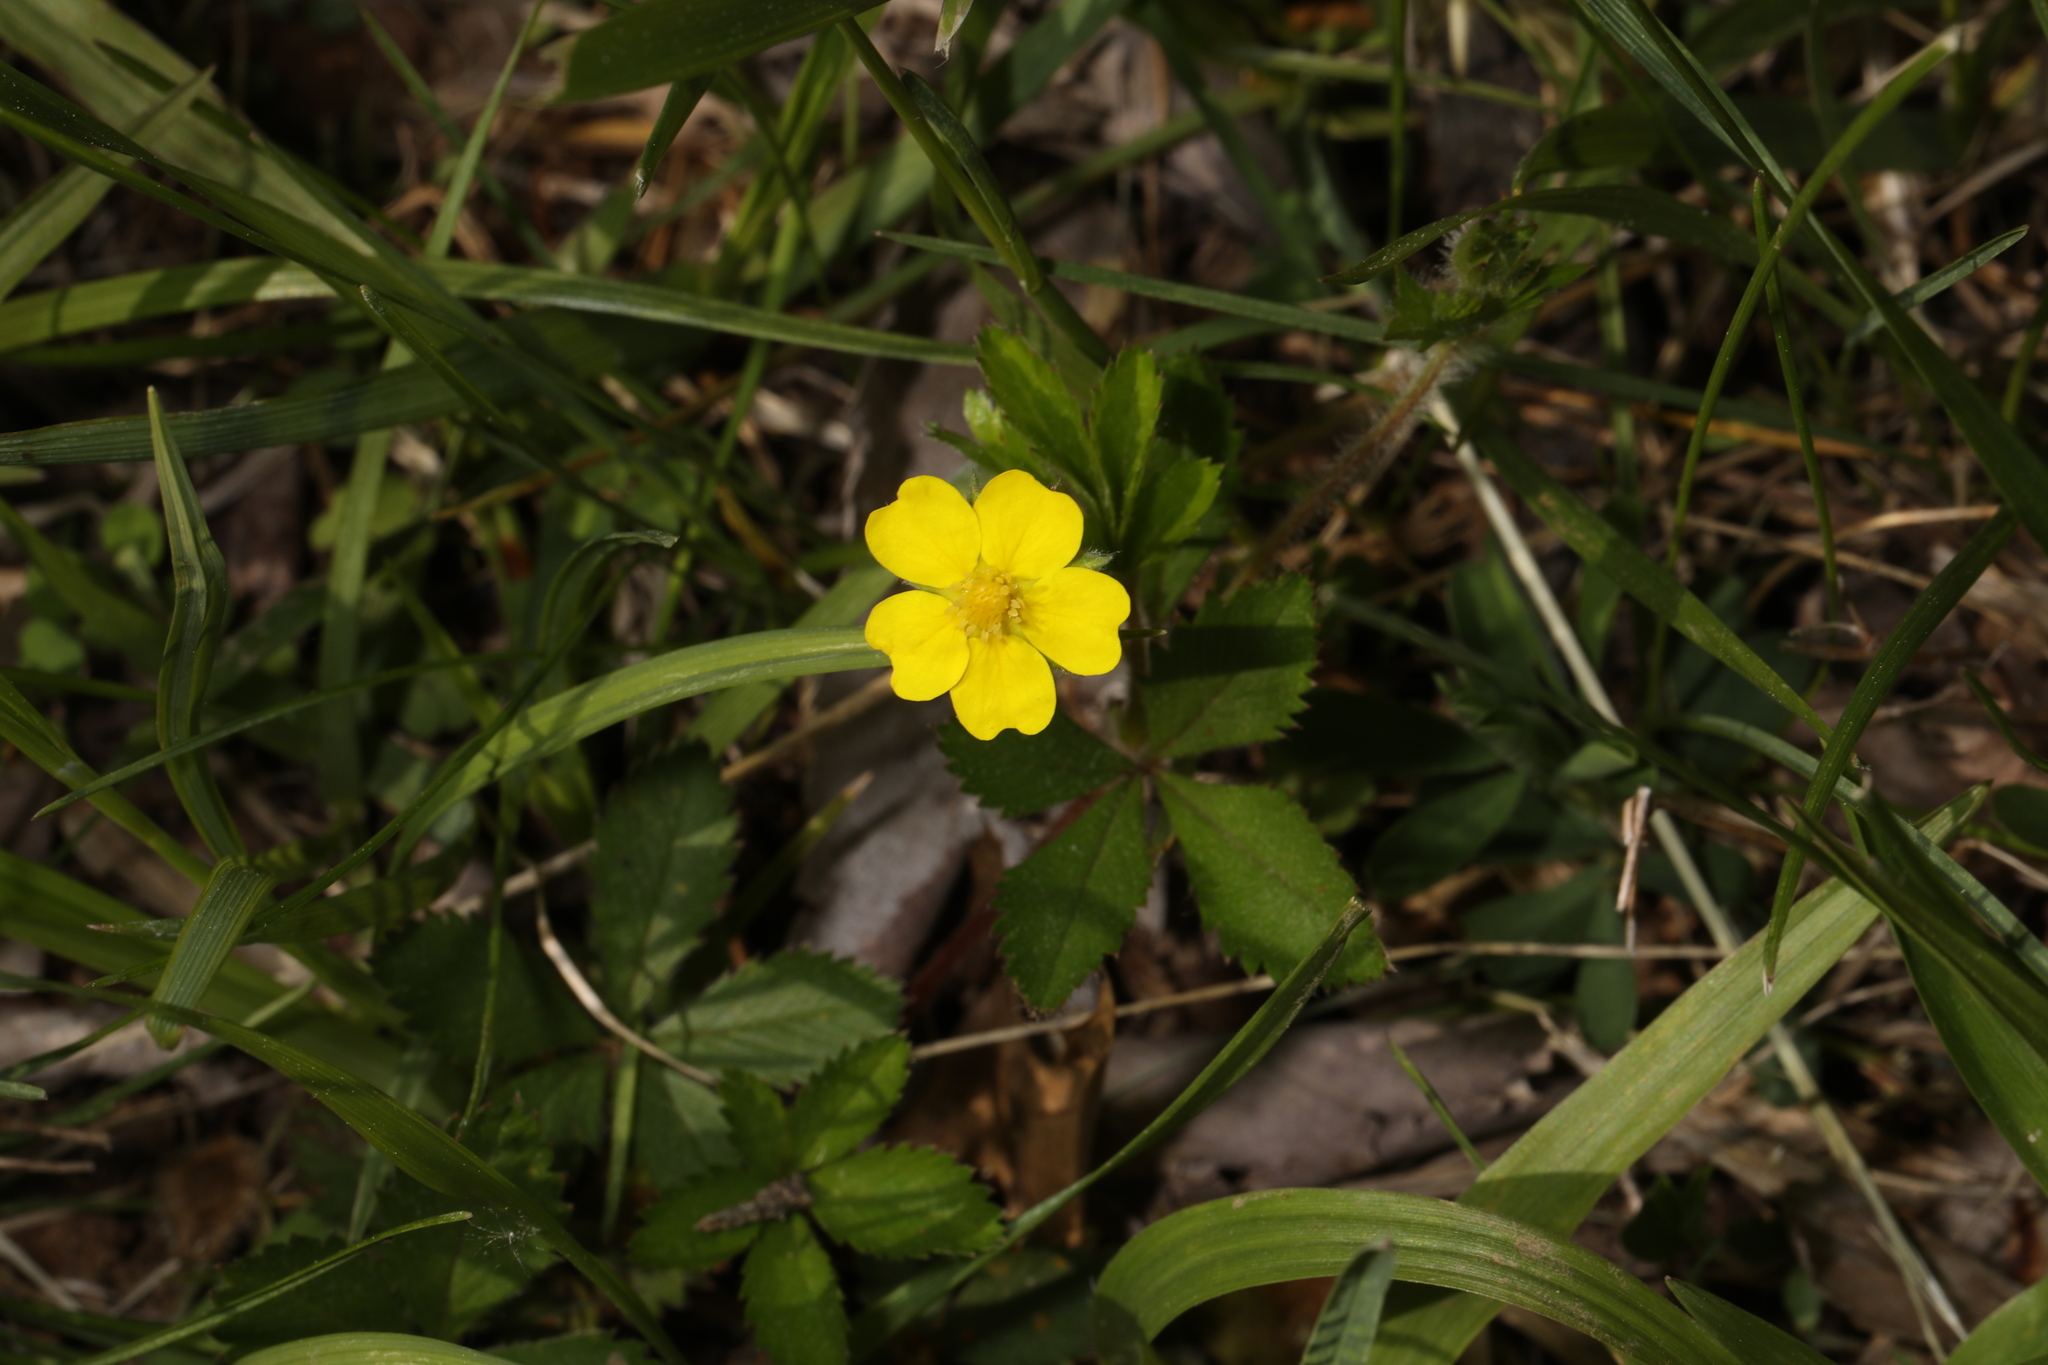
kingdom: Plantae
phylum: Tracheophyta
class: Magnoliopsida
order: Rosales
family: Rosaceae
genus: Potentilla
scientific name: Potentilla canadensis
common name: Canada cinquefoil
